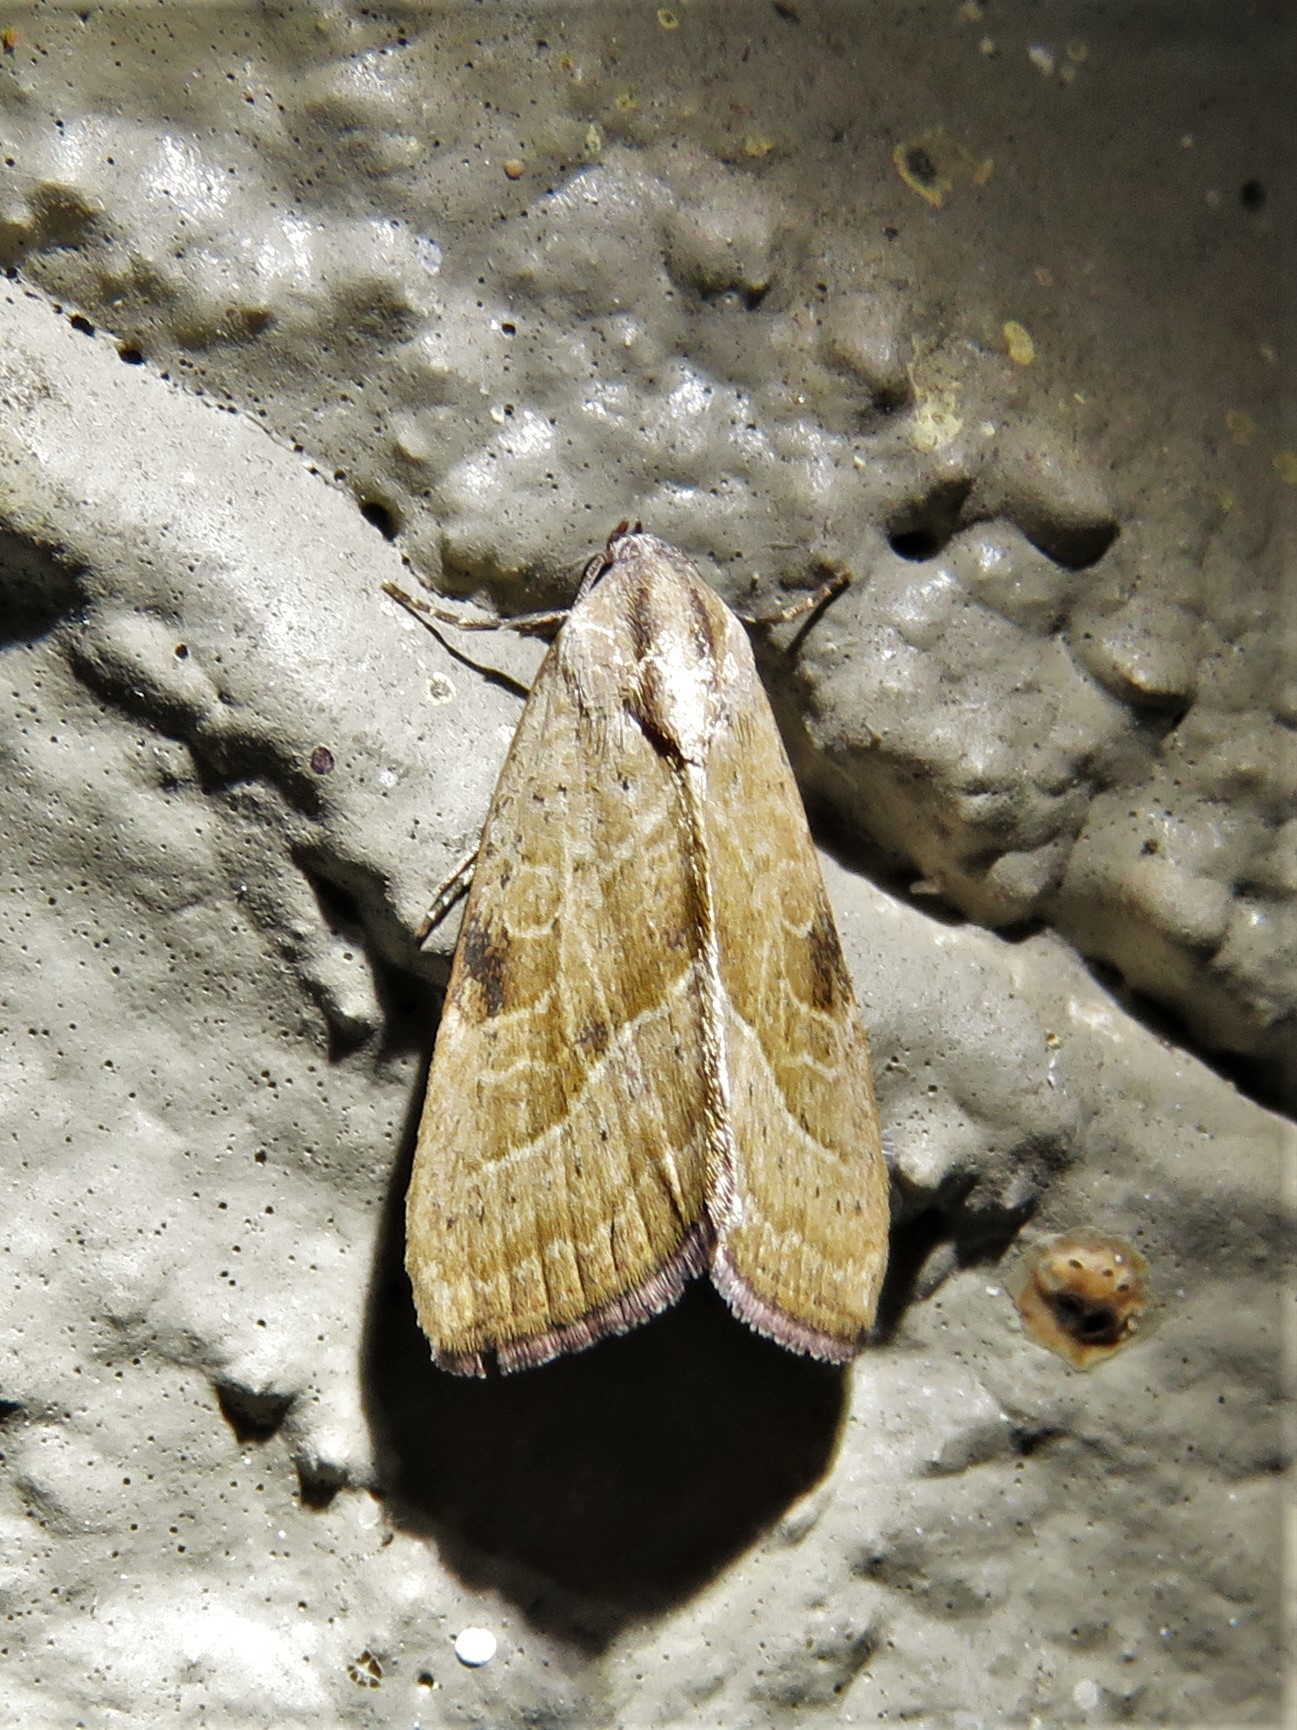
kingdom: Animalia
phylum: Arthropoda
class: Insecta
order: Lepidoptera
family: Noctuidae
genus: Galgula
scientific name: Galgula partita
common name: Wedgeling
